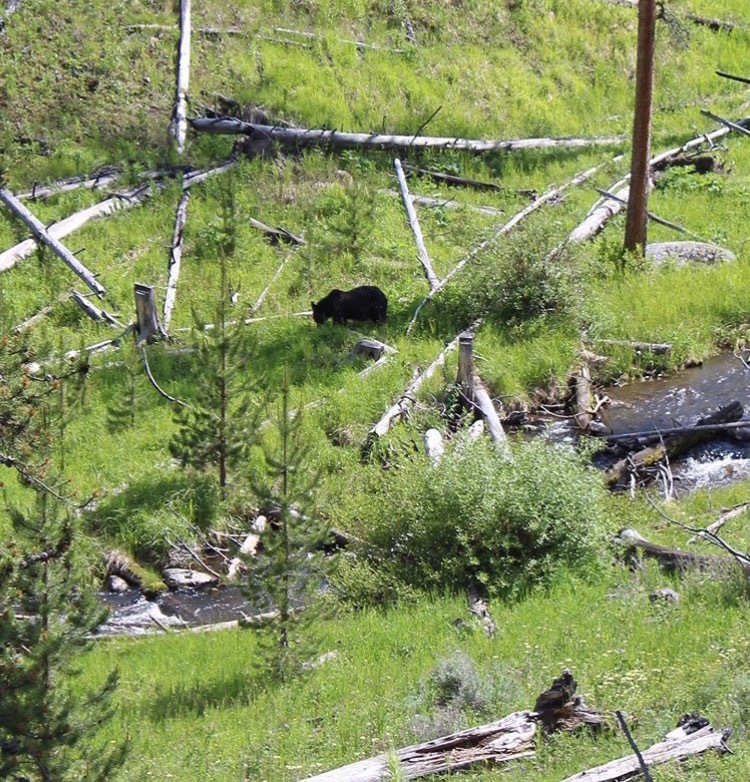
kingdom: Animalia
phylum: Chordata
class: Mammalia
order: Carnivora
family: Ursidae
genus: Ursus
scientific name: Ursus arctos
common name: Brown bear
